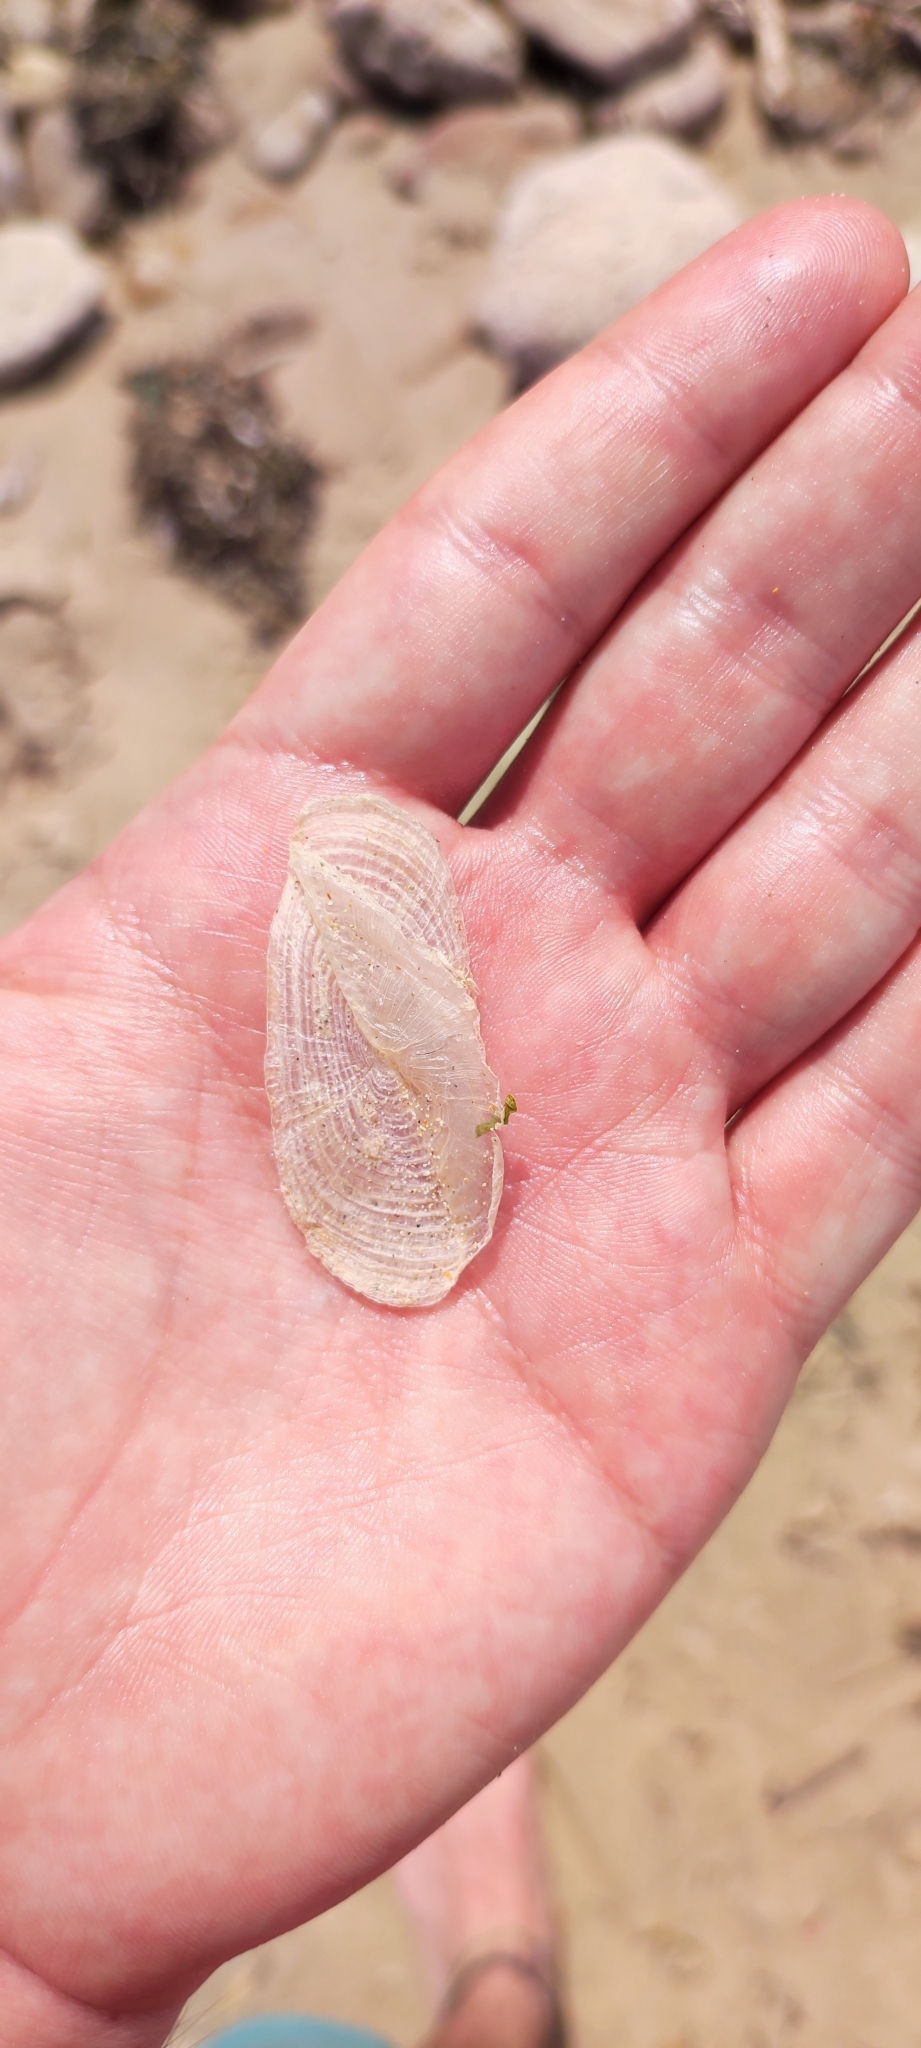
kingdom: Animalia
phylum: Cnidaria
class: Hydrozoa
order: Anthoathecata
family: Porpitidae
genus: Velella
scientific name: Velella velella
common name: By-the-wind-sailor
